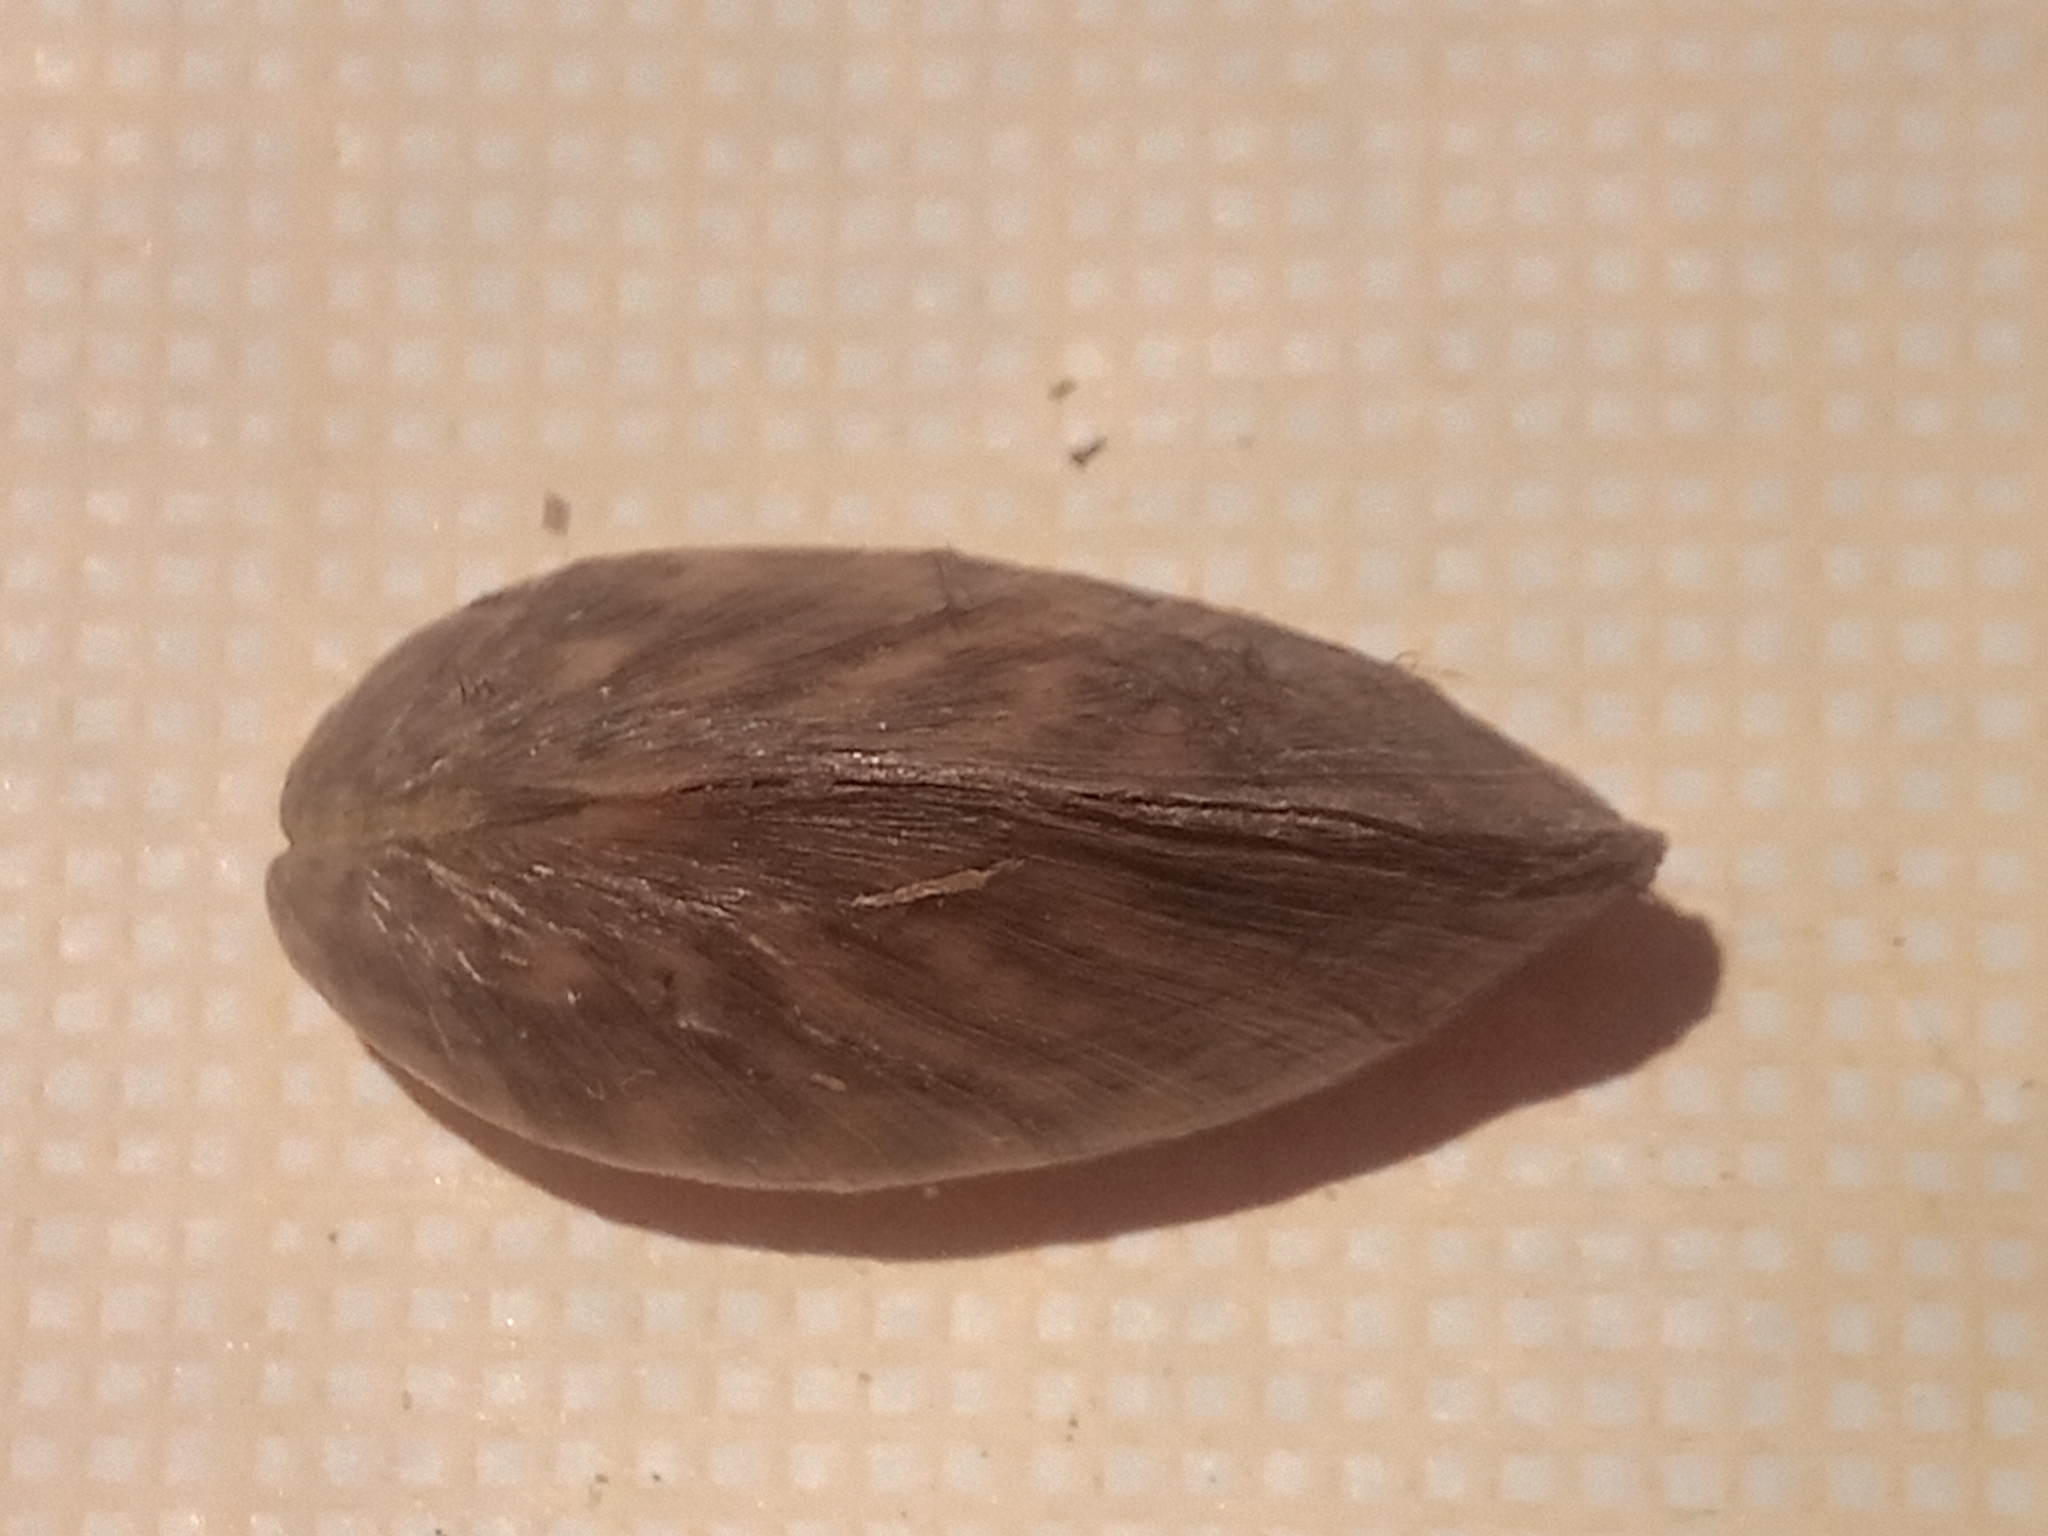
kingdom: Animalia
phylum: Mollusca
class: Bivalvia
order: Myida
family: Dreissenidae
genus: Dreissena
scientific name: Dreissena polymorpha
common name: Zebra mussel
